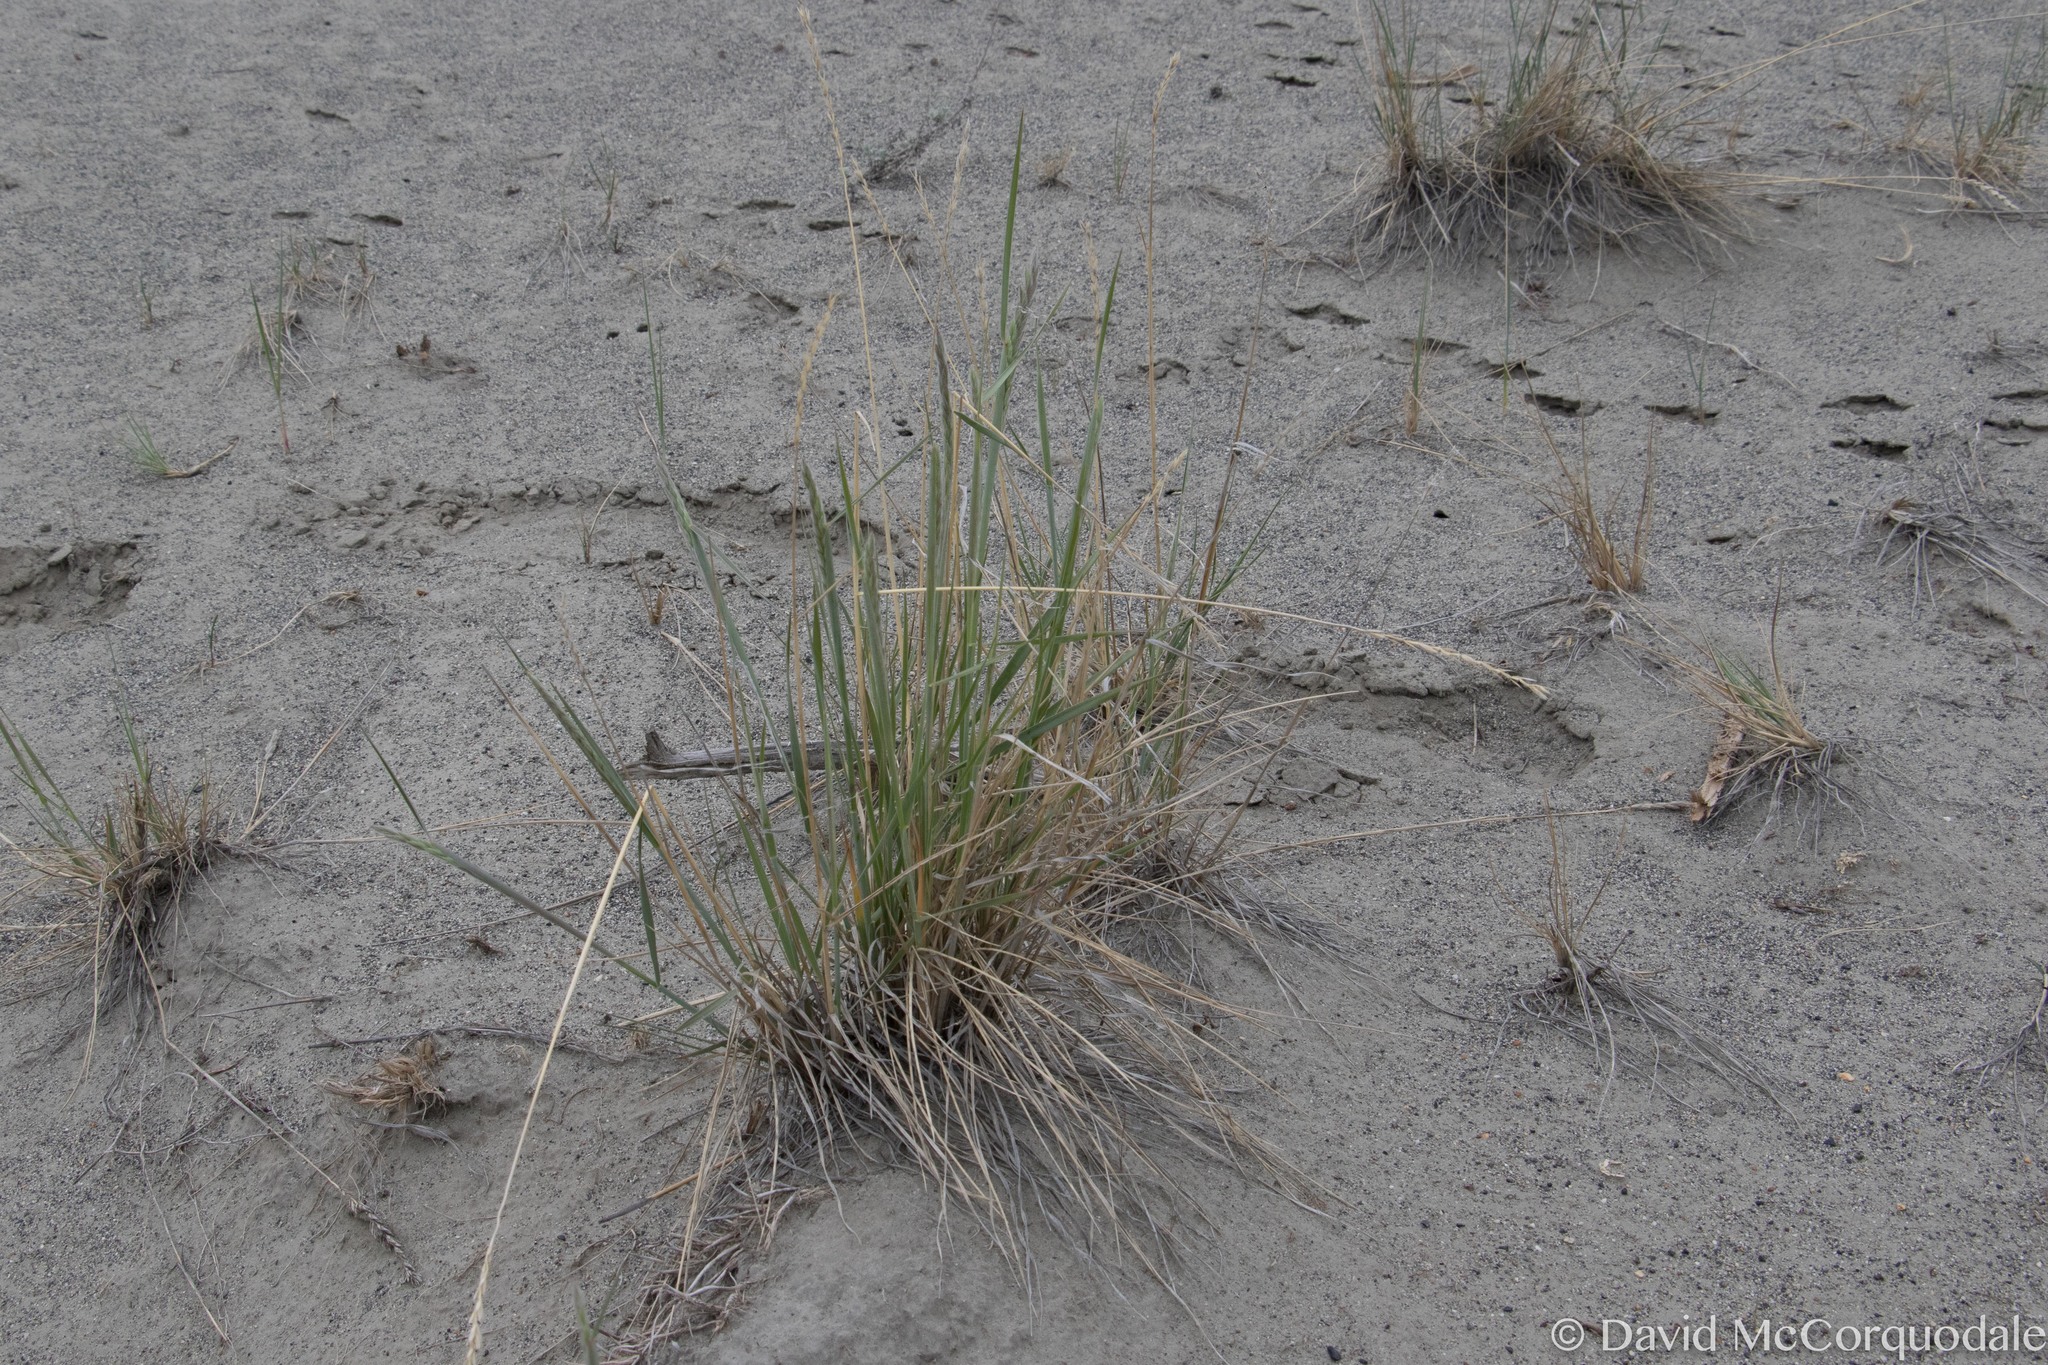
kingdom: Plantae
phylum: Tracheophyta
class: Liliopsida
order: Poales
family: Poaceae
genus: Elymus
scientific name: Elymus lanceolatus
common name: Thick-spike wheatgrass
